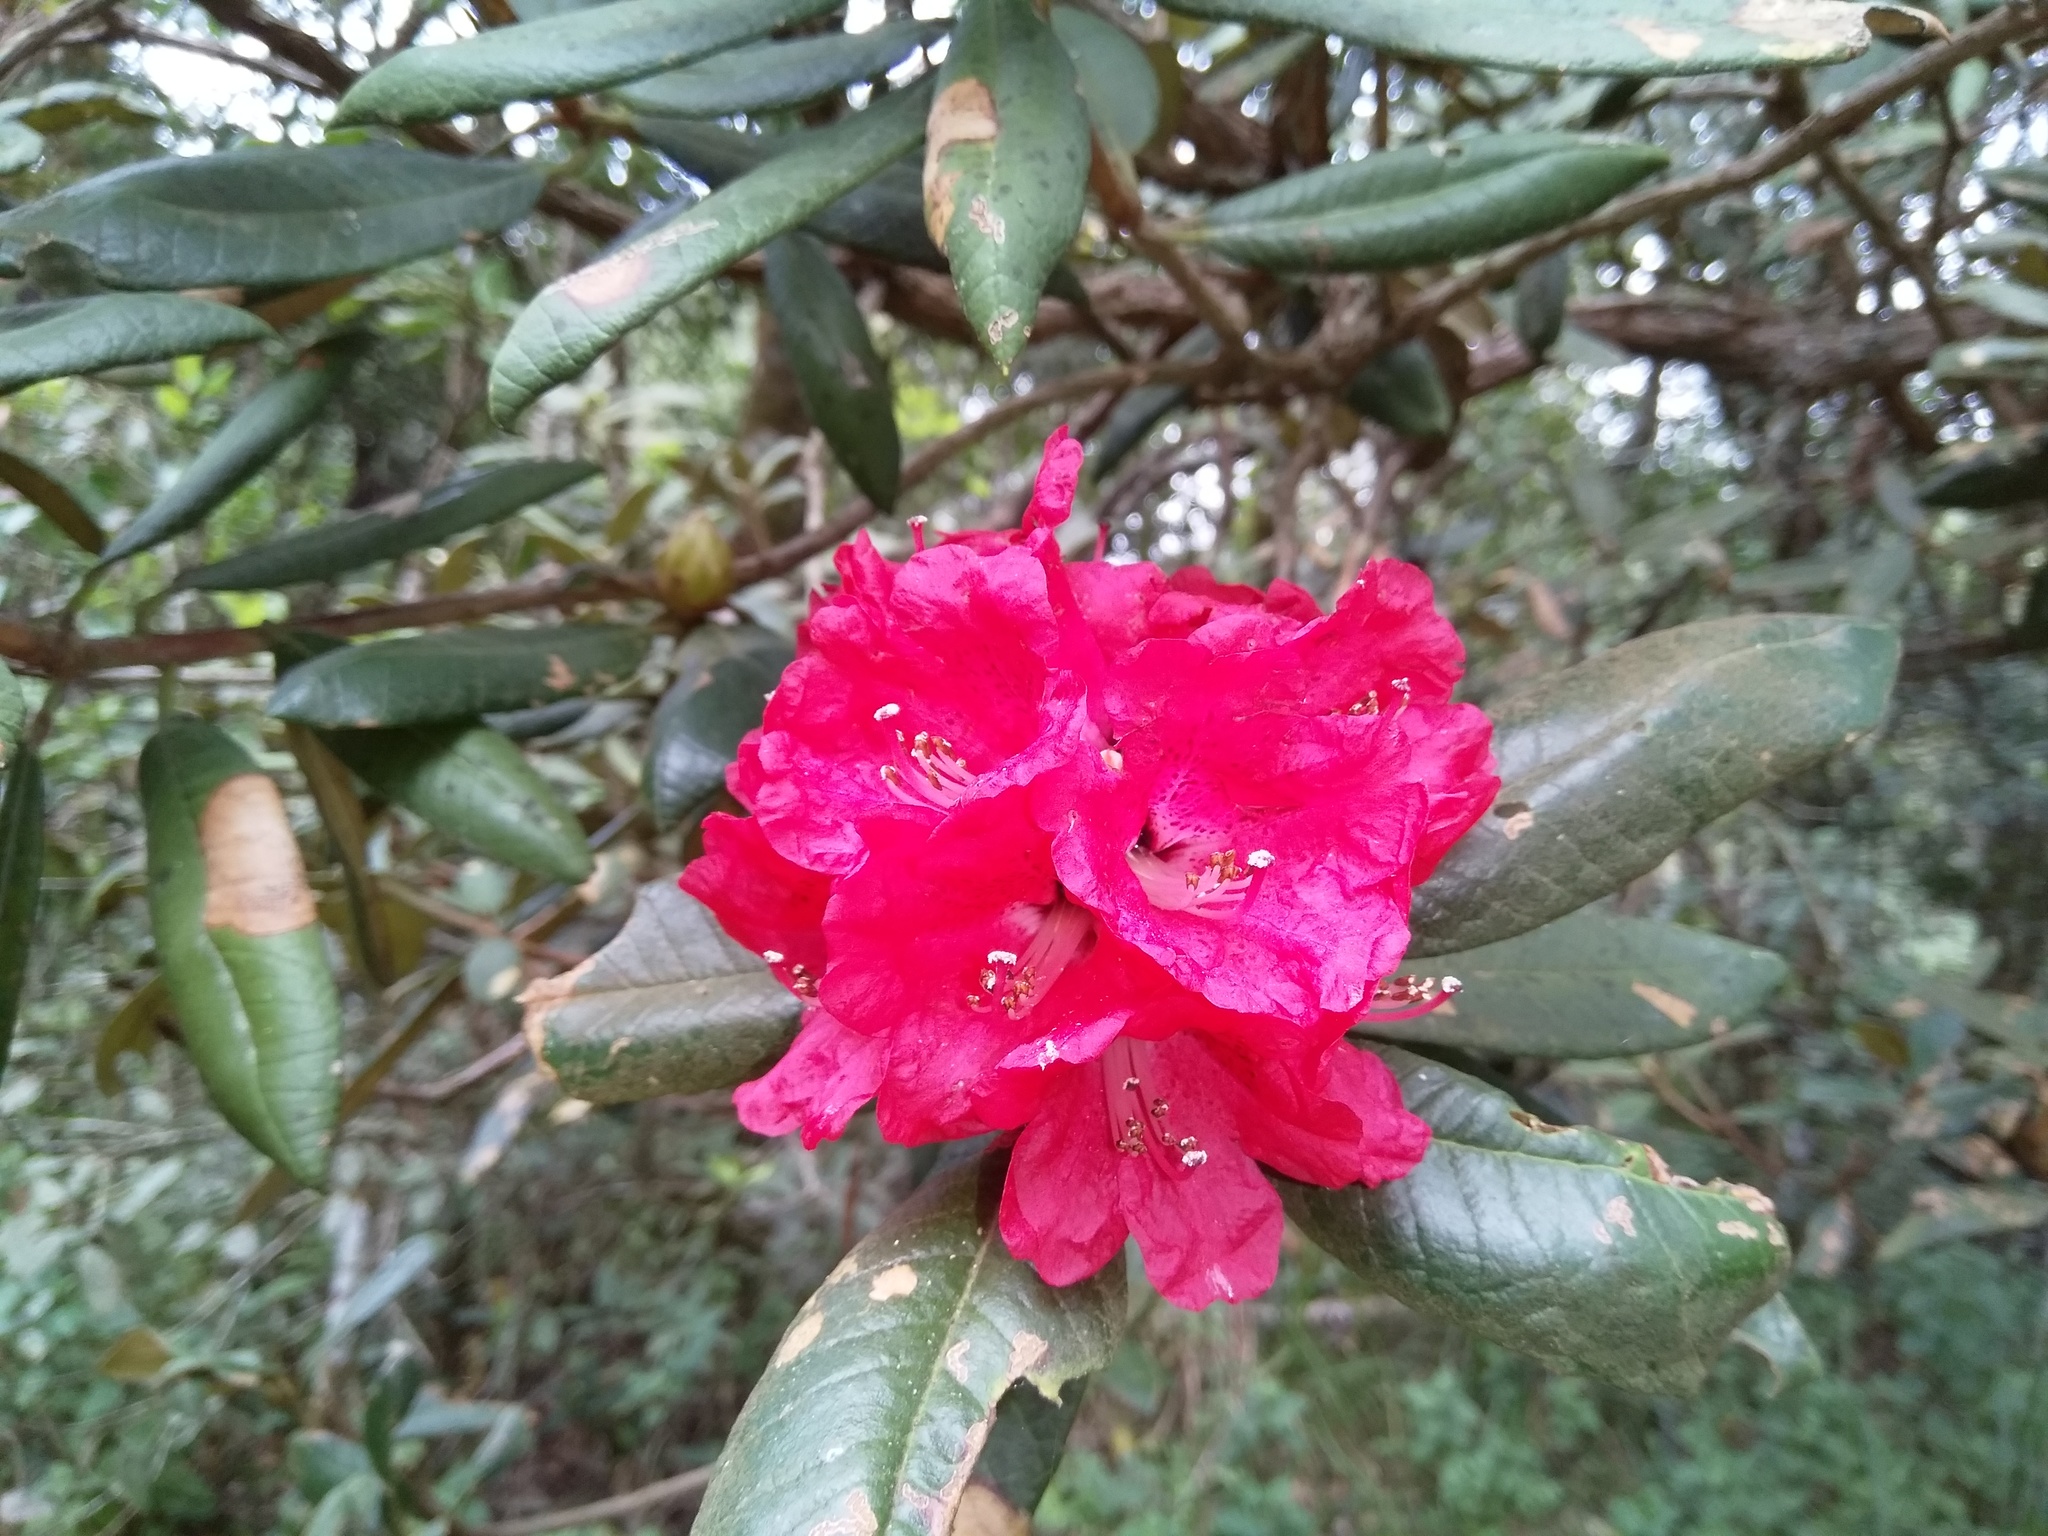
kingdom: Plantae
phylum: Tracheophyta
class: Magnoliopsida
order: Ericales
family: Ericaceae
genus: Rhododendron
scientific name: Rhododendron arboreum
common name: Tree rhododendron
